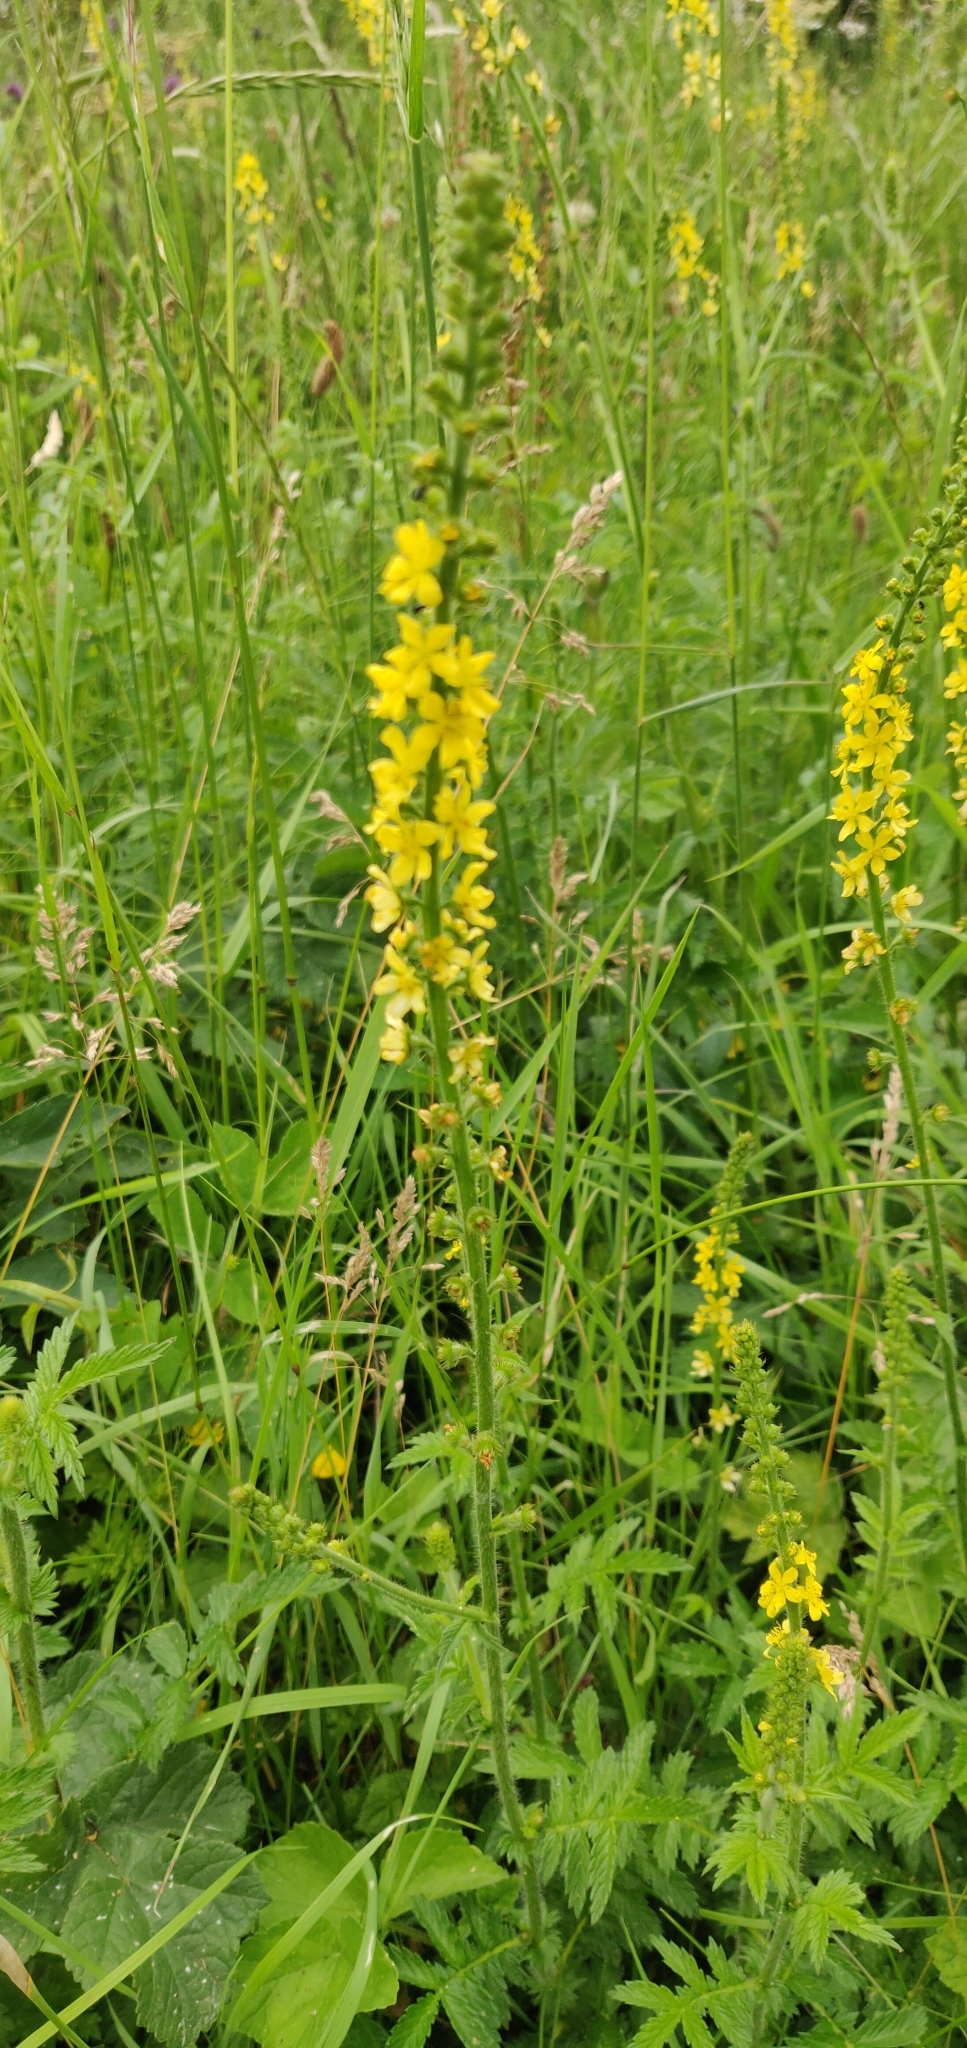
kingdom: Plantae
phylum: Tracheophyta
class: Magnoliopsida
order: Rosales
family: Rosaceae
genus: Agrimonia
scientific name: Agrimonia eupatoria
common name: Agrimony
